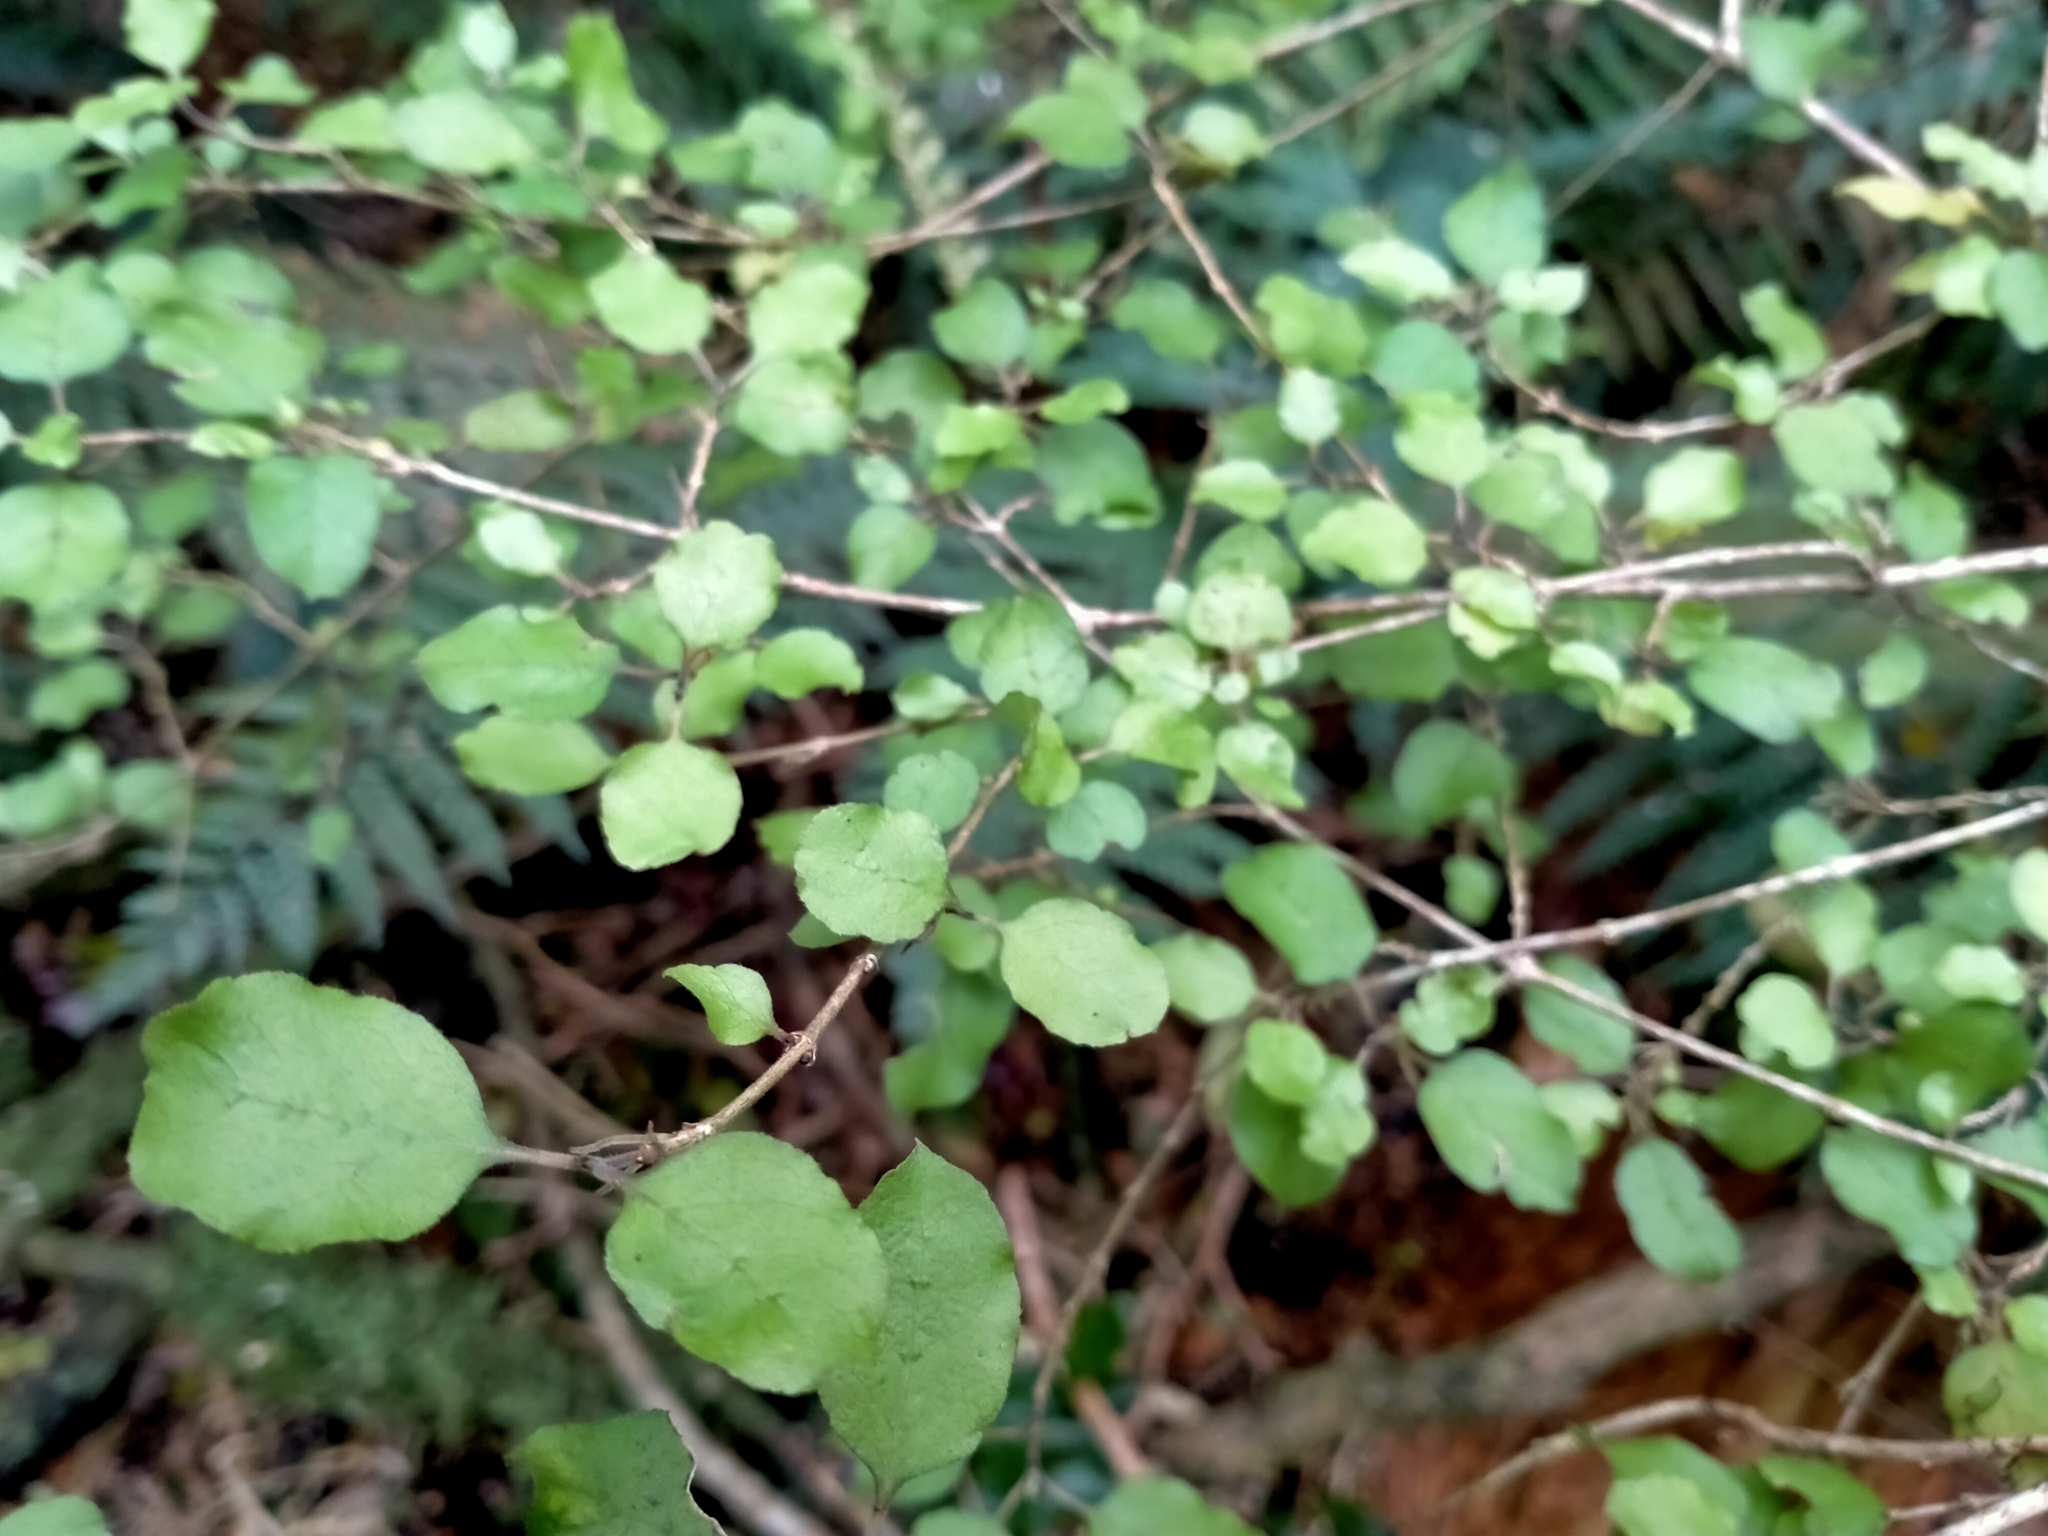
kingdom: Plantae
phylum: Tracheophyta
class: Magnoliopsida
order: Gentianales
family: Rubiaceae
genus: Coprosma
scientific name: Coprosma rotundifolia
